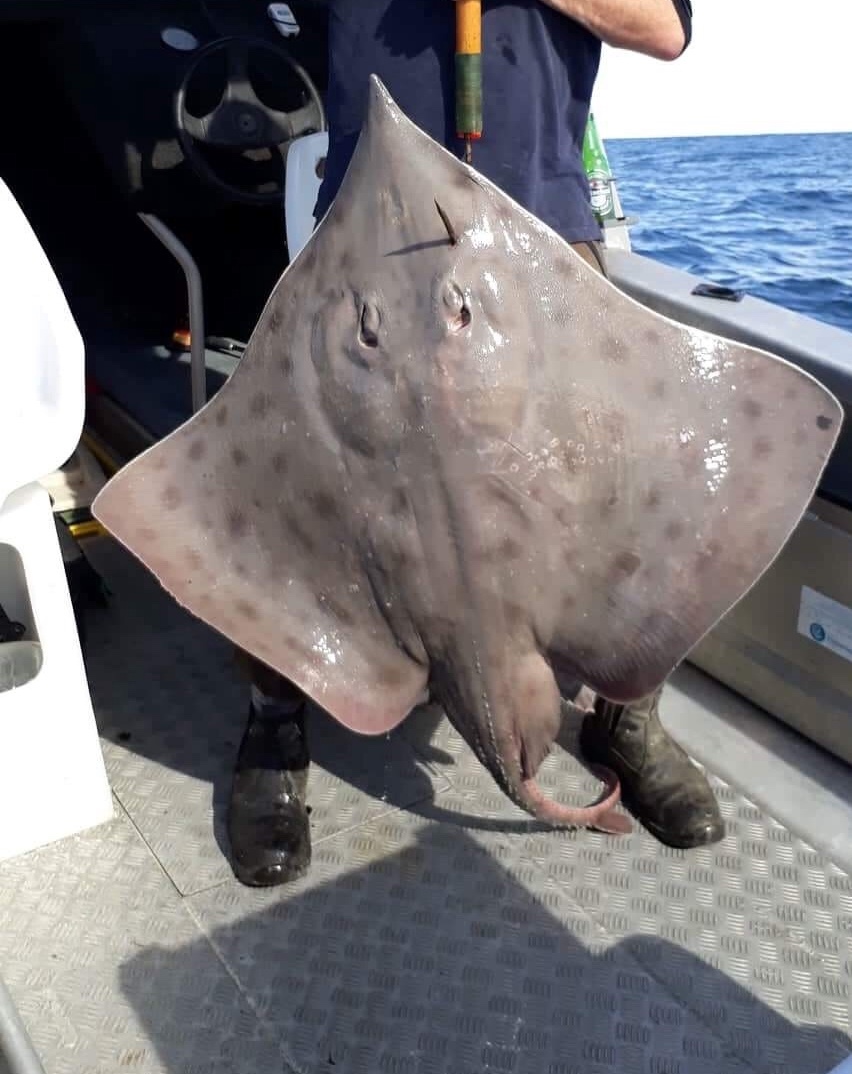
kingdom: Animalia
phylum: Chordata
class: Elasmobranchii
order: Rajiformes
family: Rajidae
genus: Dipturus
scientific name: Dipturus innominatus
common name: New zealand smooth skate
